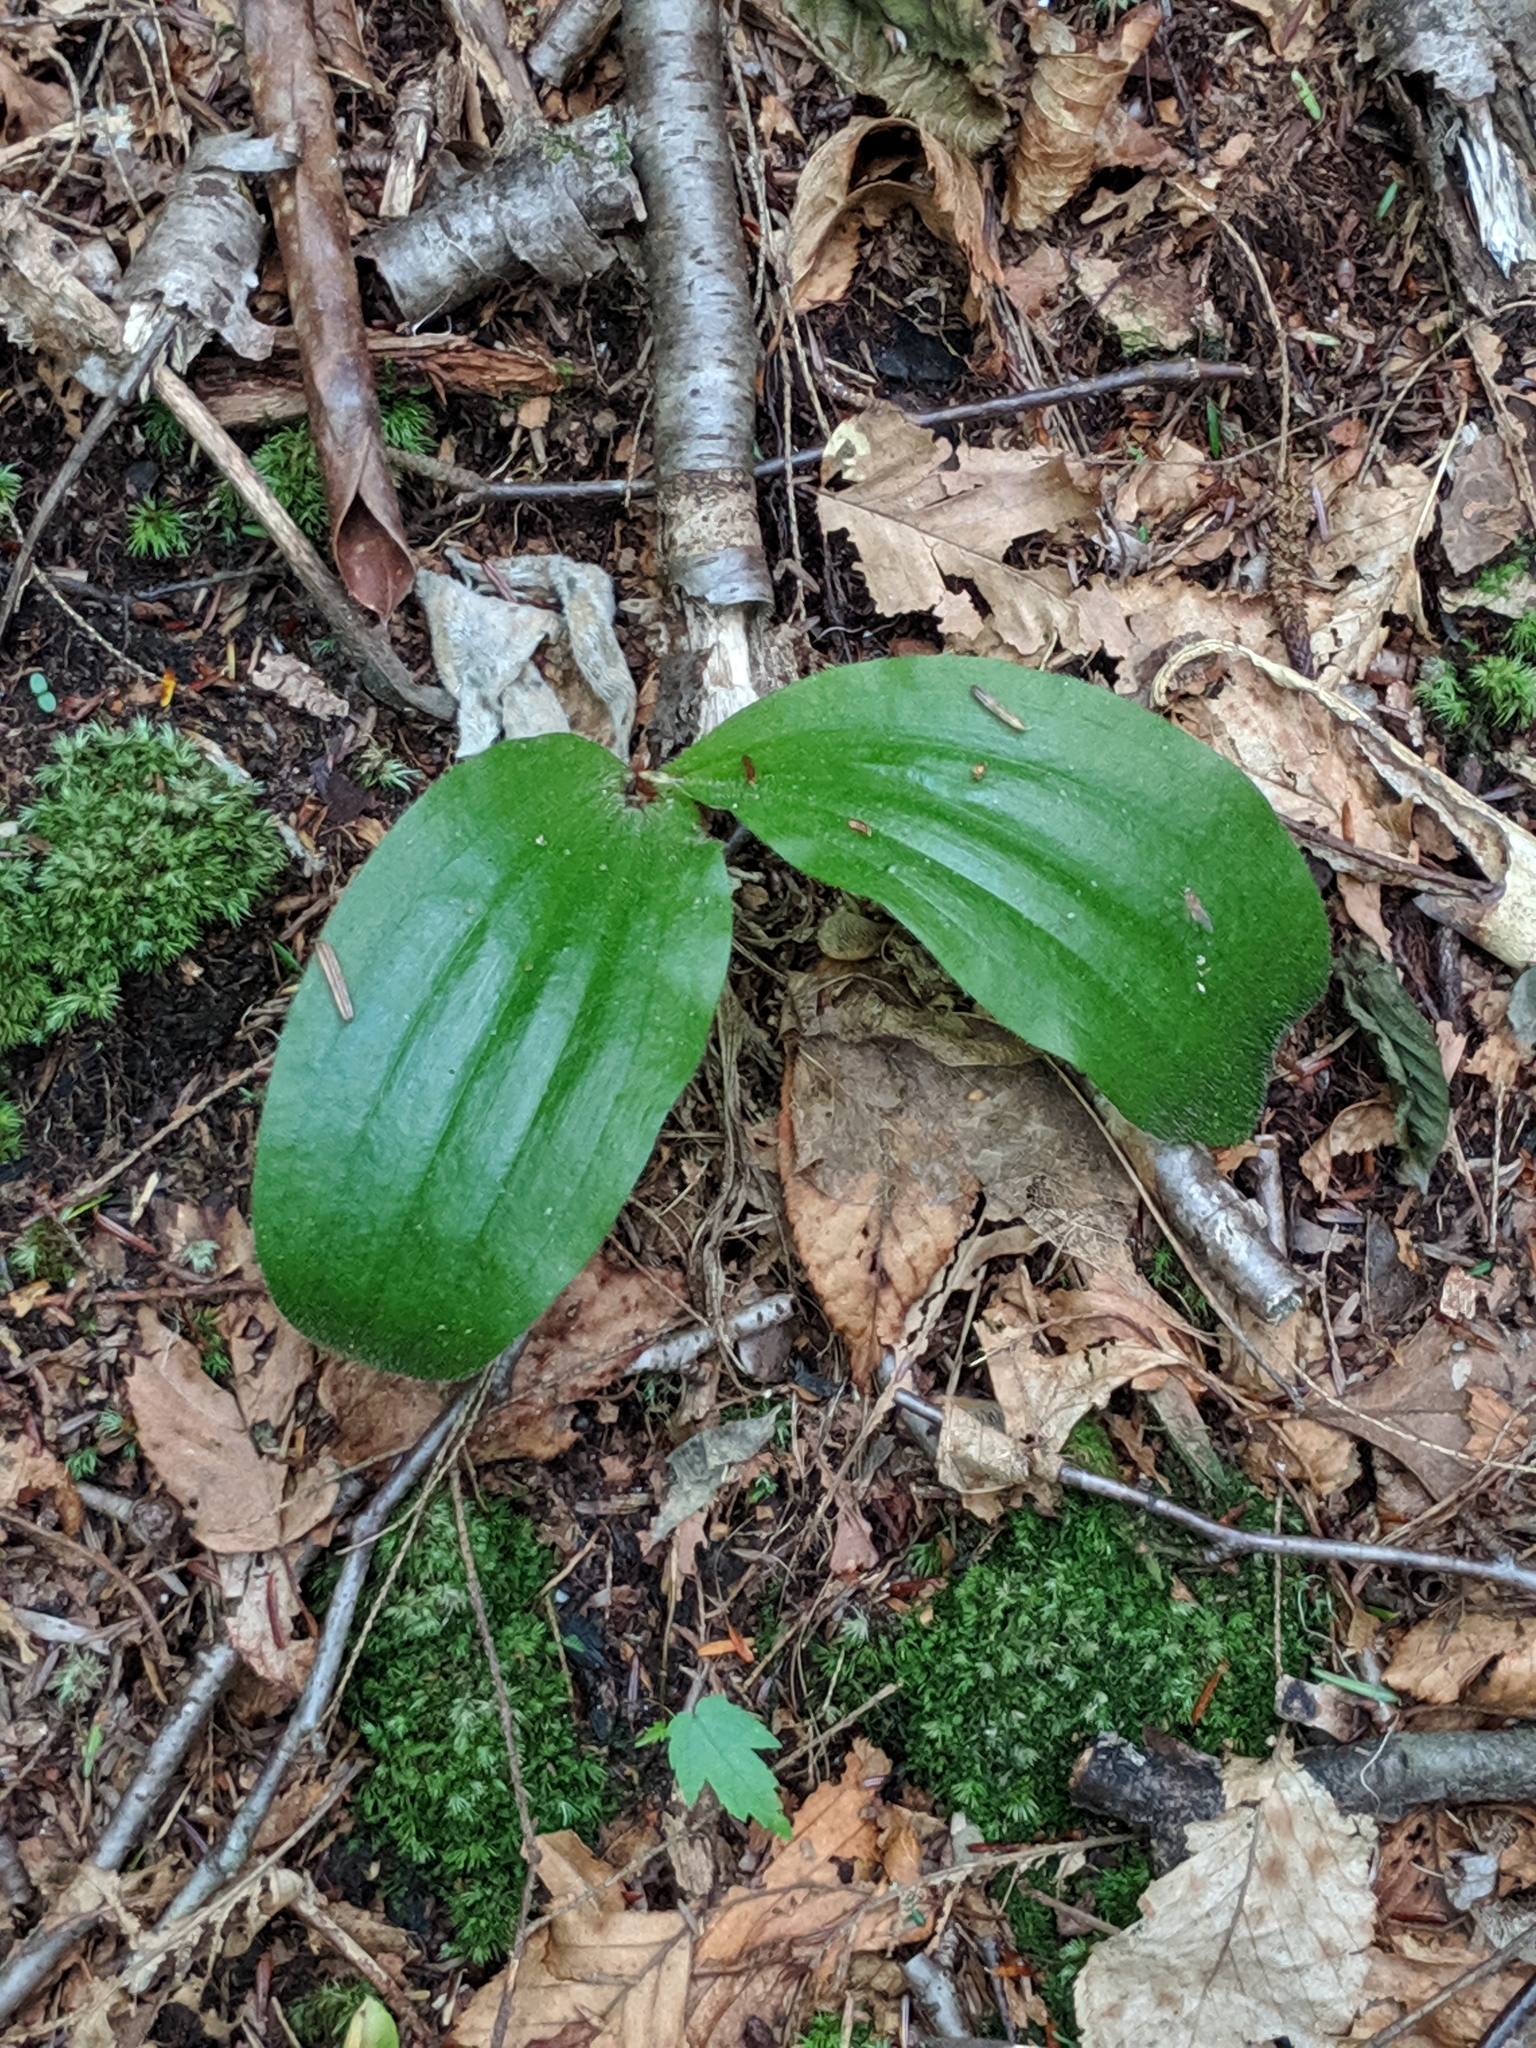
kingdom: Plantae
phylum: Tracheophyta
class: Liliopsida
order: Asparagales
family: Orchidaceae
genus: Cypripedium
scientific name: Cypripedium acaule
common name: Pink lady's-slipper
